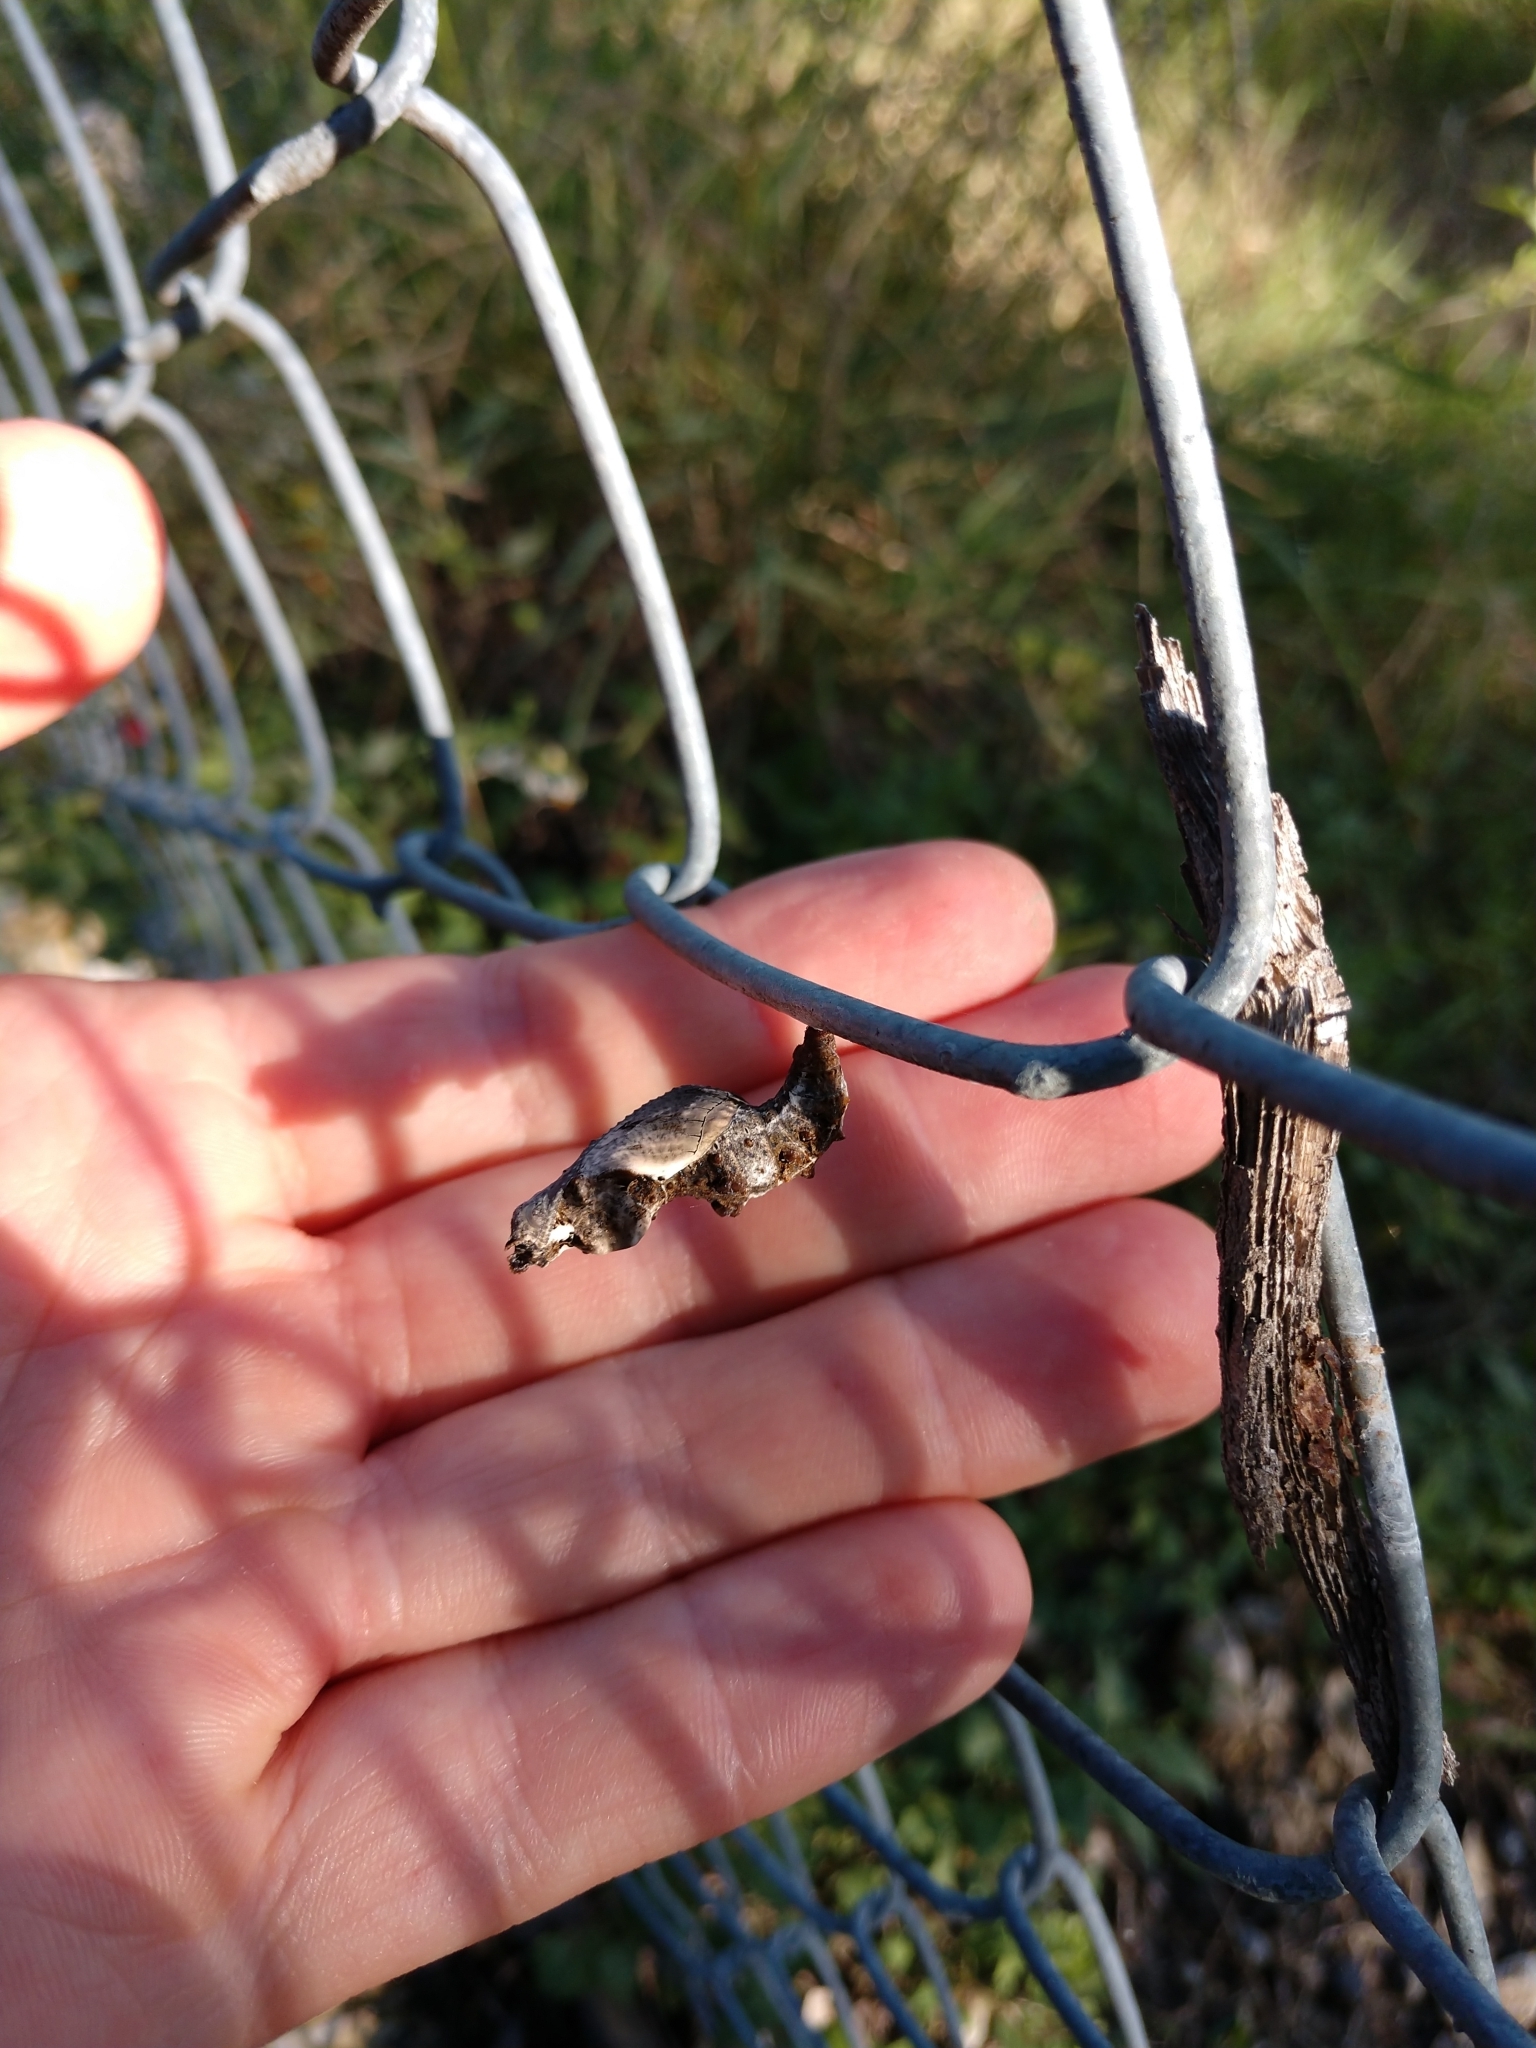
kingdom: Animalia
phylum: Arthropoda
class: Insecta
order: Lepidoptera
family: Nymphalidae
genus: Dione
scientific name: Dione vanillae
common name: Gulf fritillary
